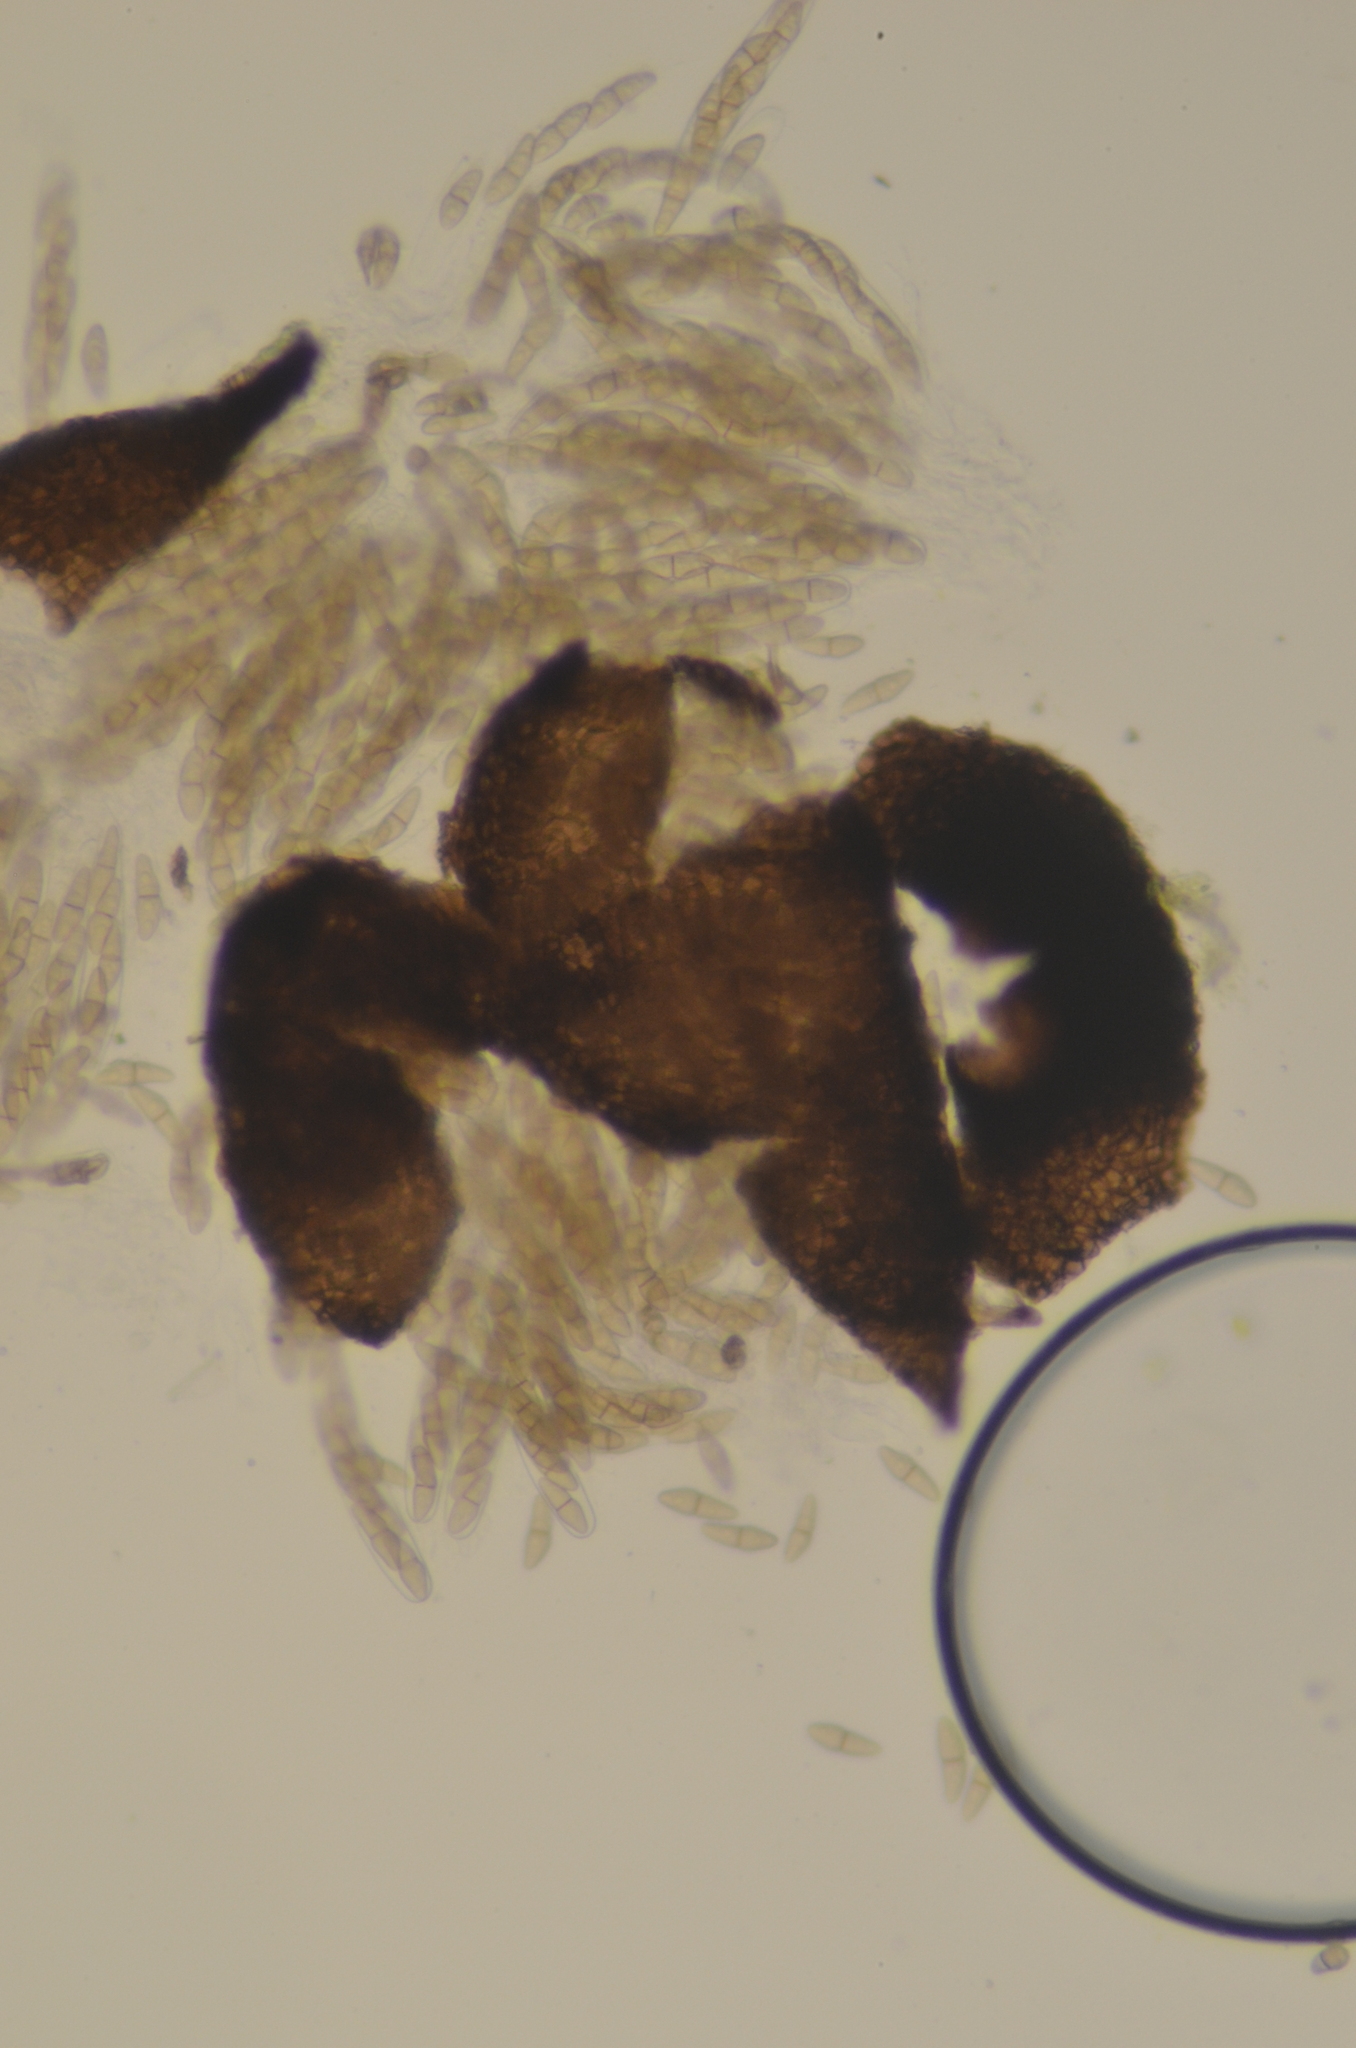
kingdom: Fungi
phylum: Ascomycota
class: Dothideomycetes
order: Pleosporales
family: Lizoniaceae
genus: Lizonia
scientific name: Lizonia emperigonia
